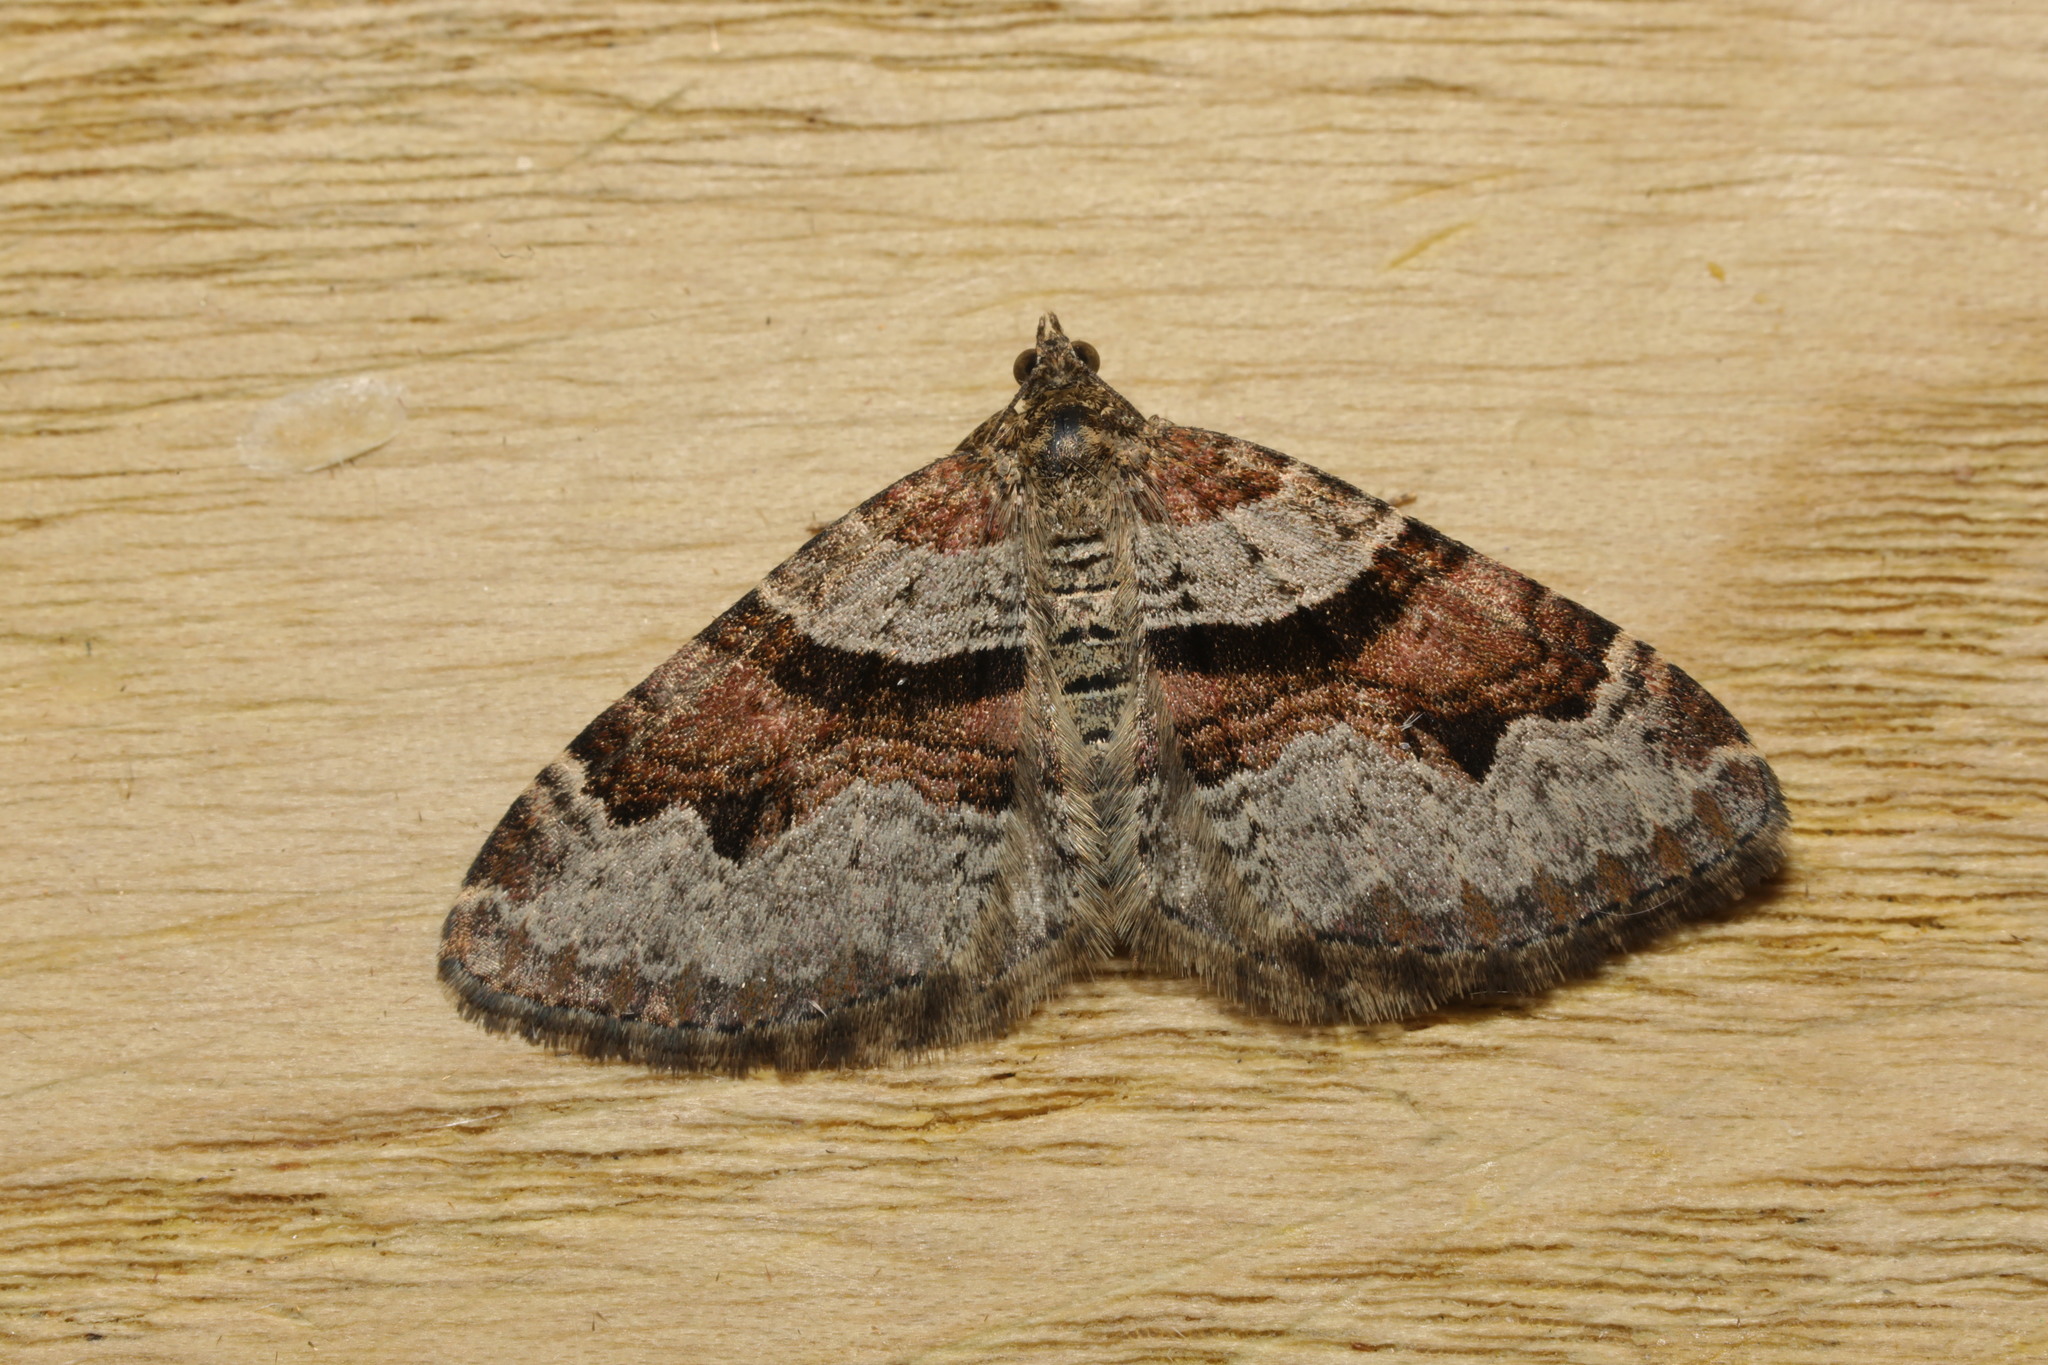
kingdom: Animalia
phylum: Arthropoda
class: Insecta
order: Lepidoptera
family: Geometridae
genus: Xanthorhoe
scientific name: Xanthorhoe designata
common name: Flame carpet
